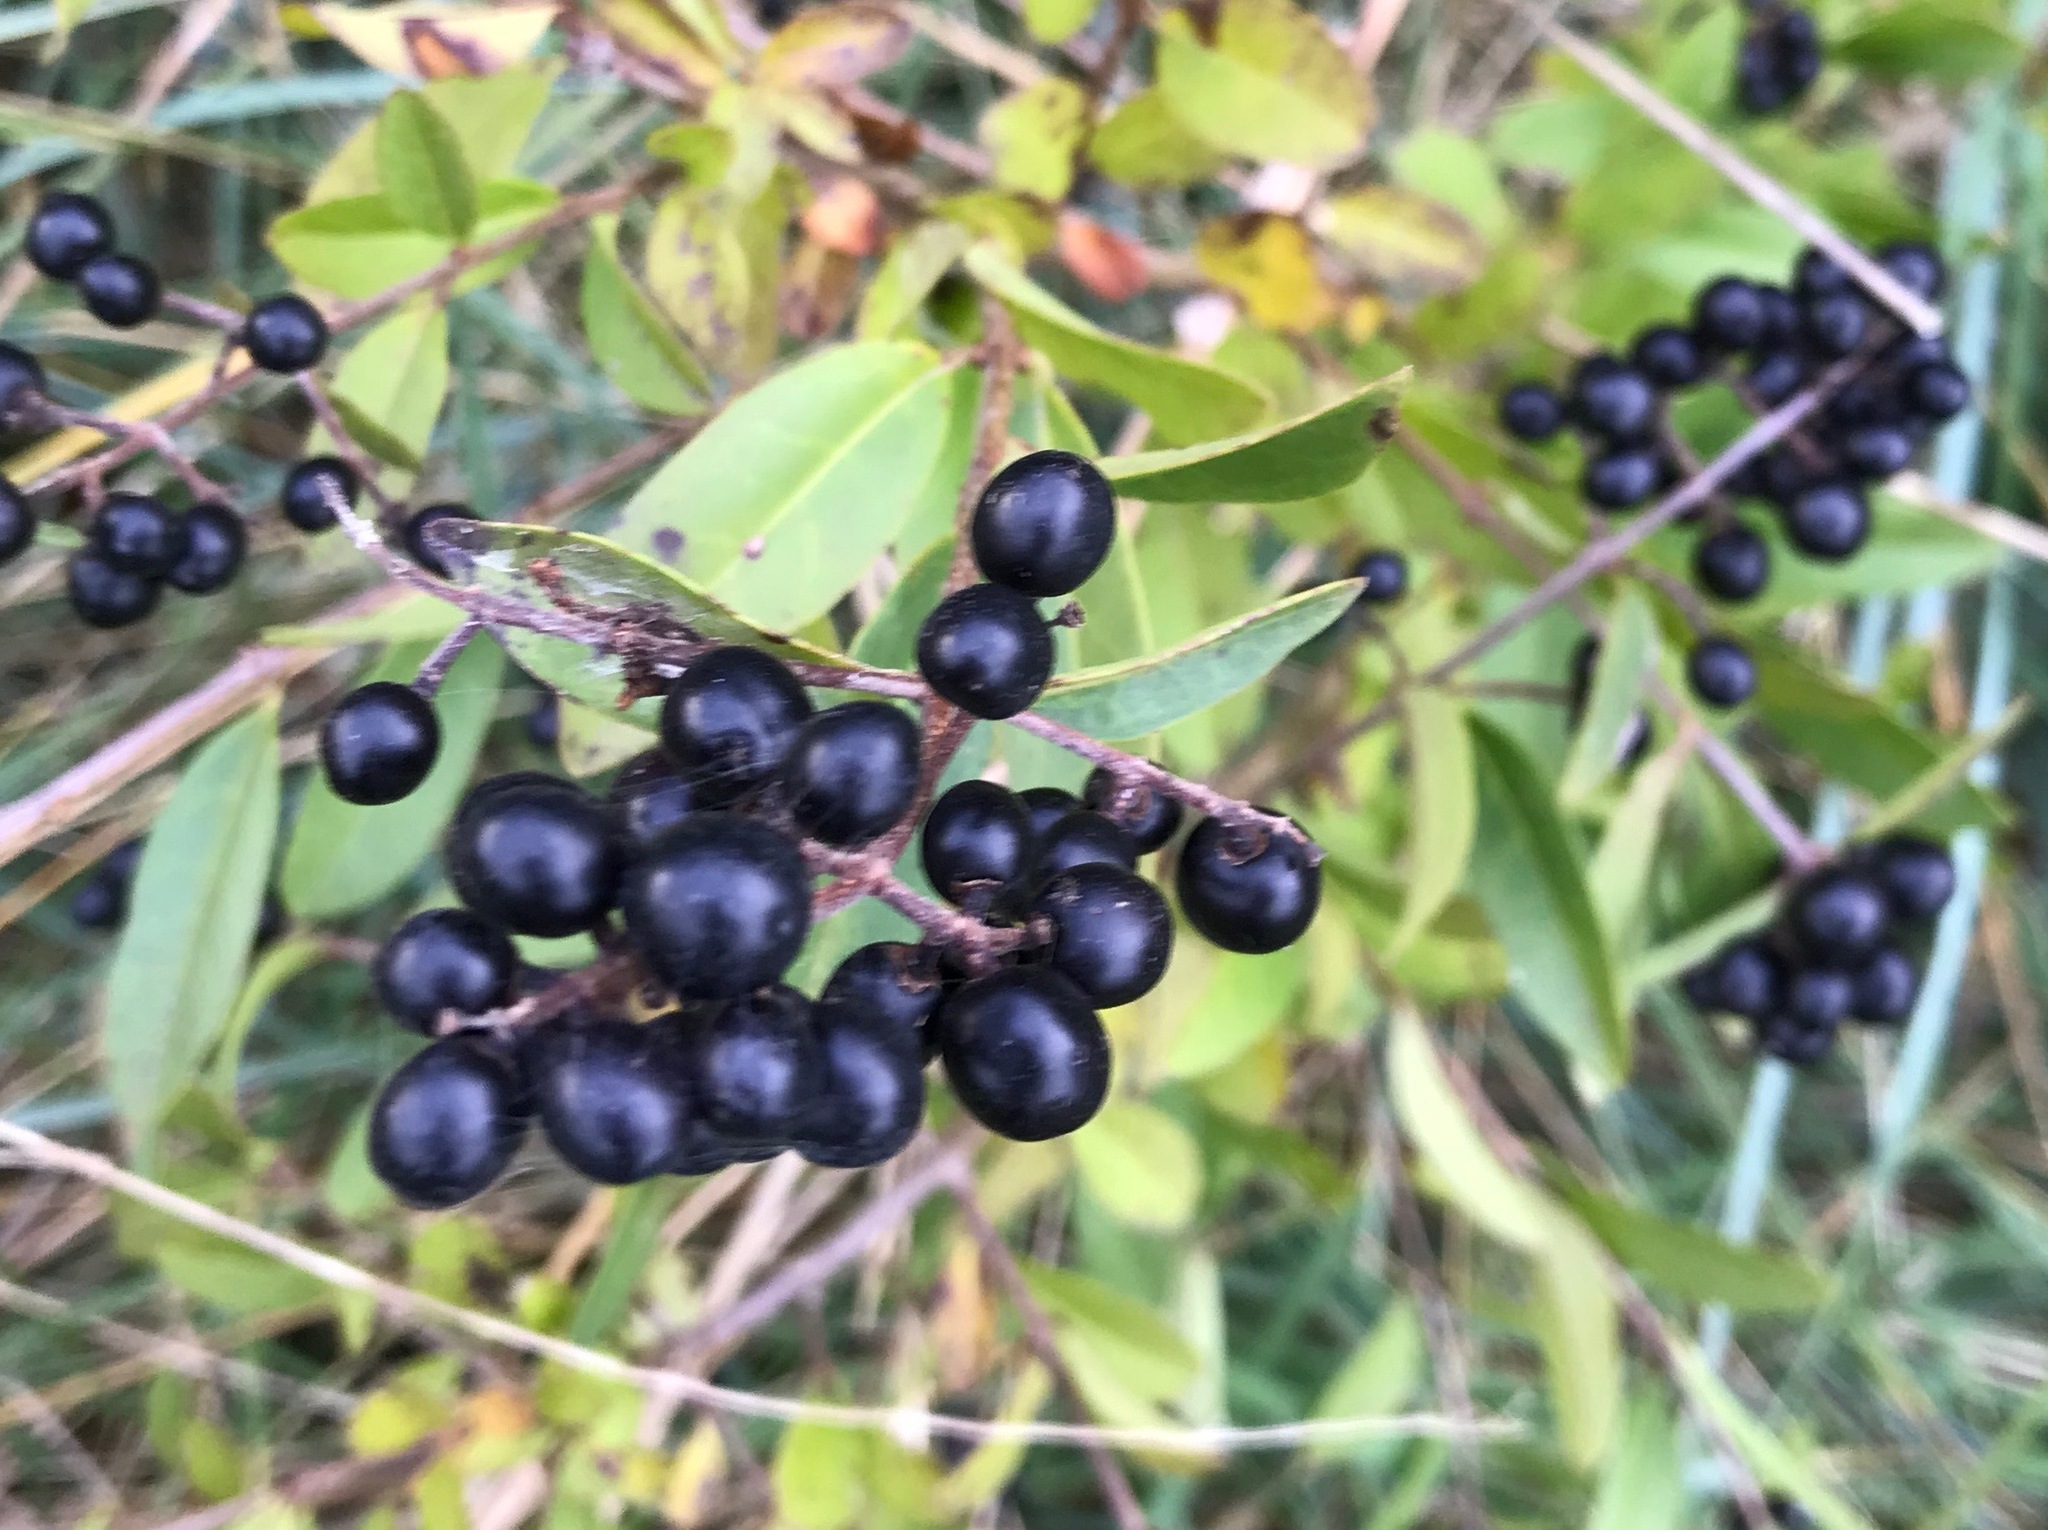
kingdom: Plantae
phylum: Tracheophyta
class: Magnoliopsida
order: Lamiales
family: Oleaceae
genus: Ligustrum
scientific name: Ligustrum vulgare
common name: Wild privet
